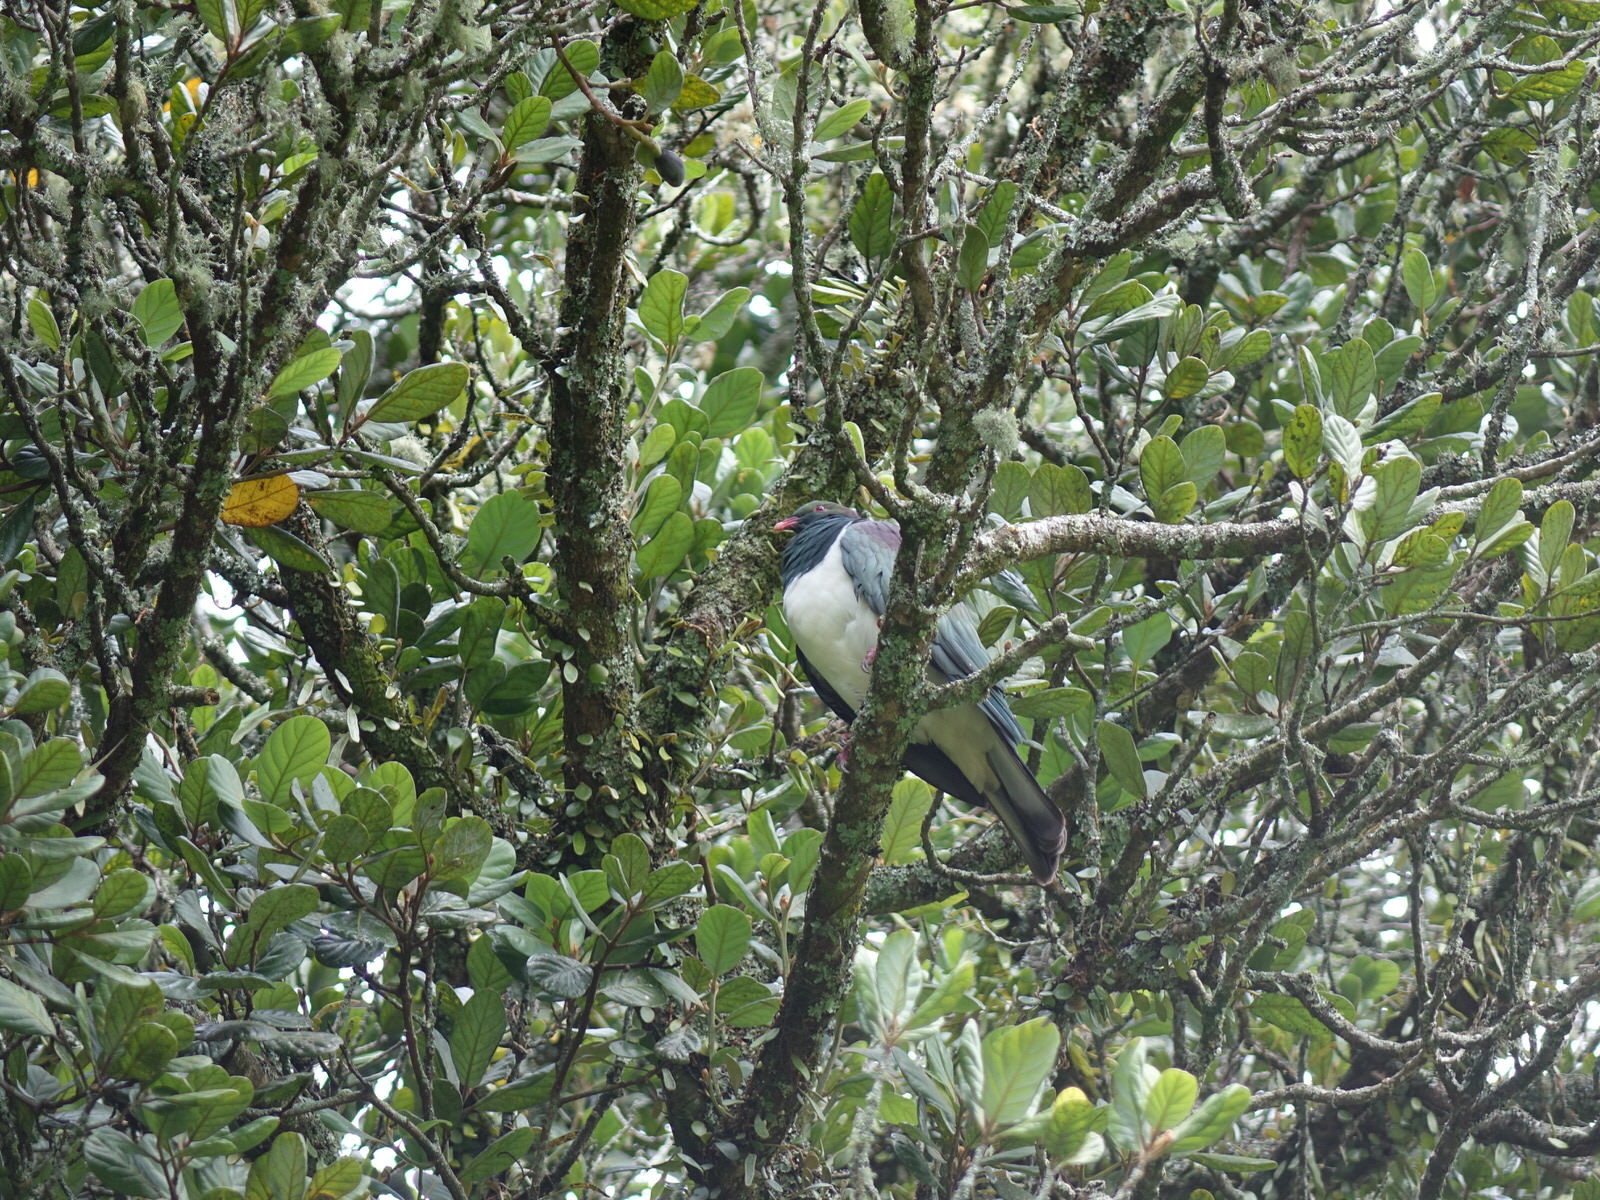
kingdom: Animalia
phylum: Chordata
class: Aves
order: Columbiformes
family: Columbidae
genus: Hemiphaga
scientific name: Hemiphaga novaeseelandiae
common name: New zealand pigeon
